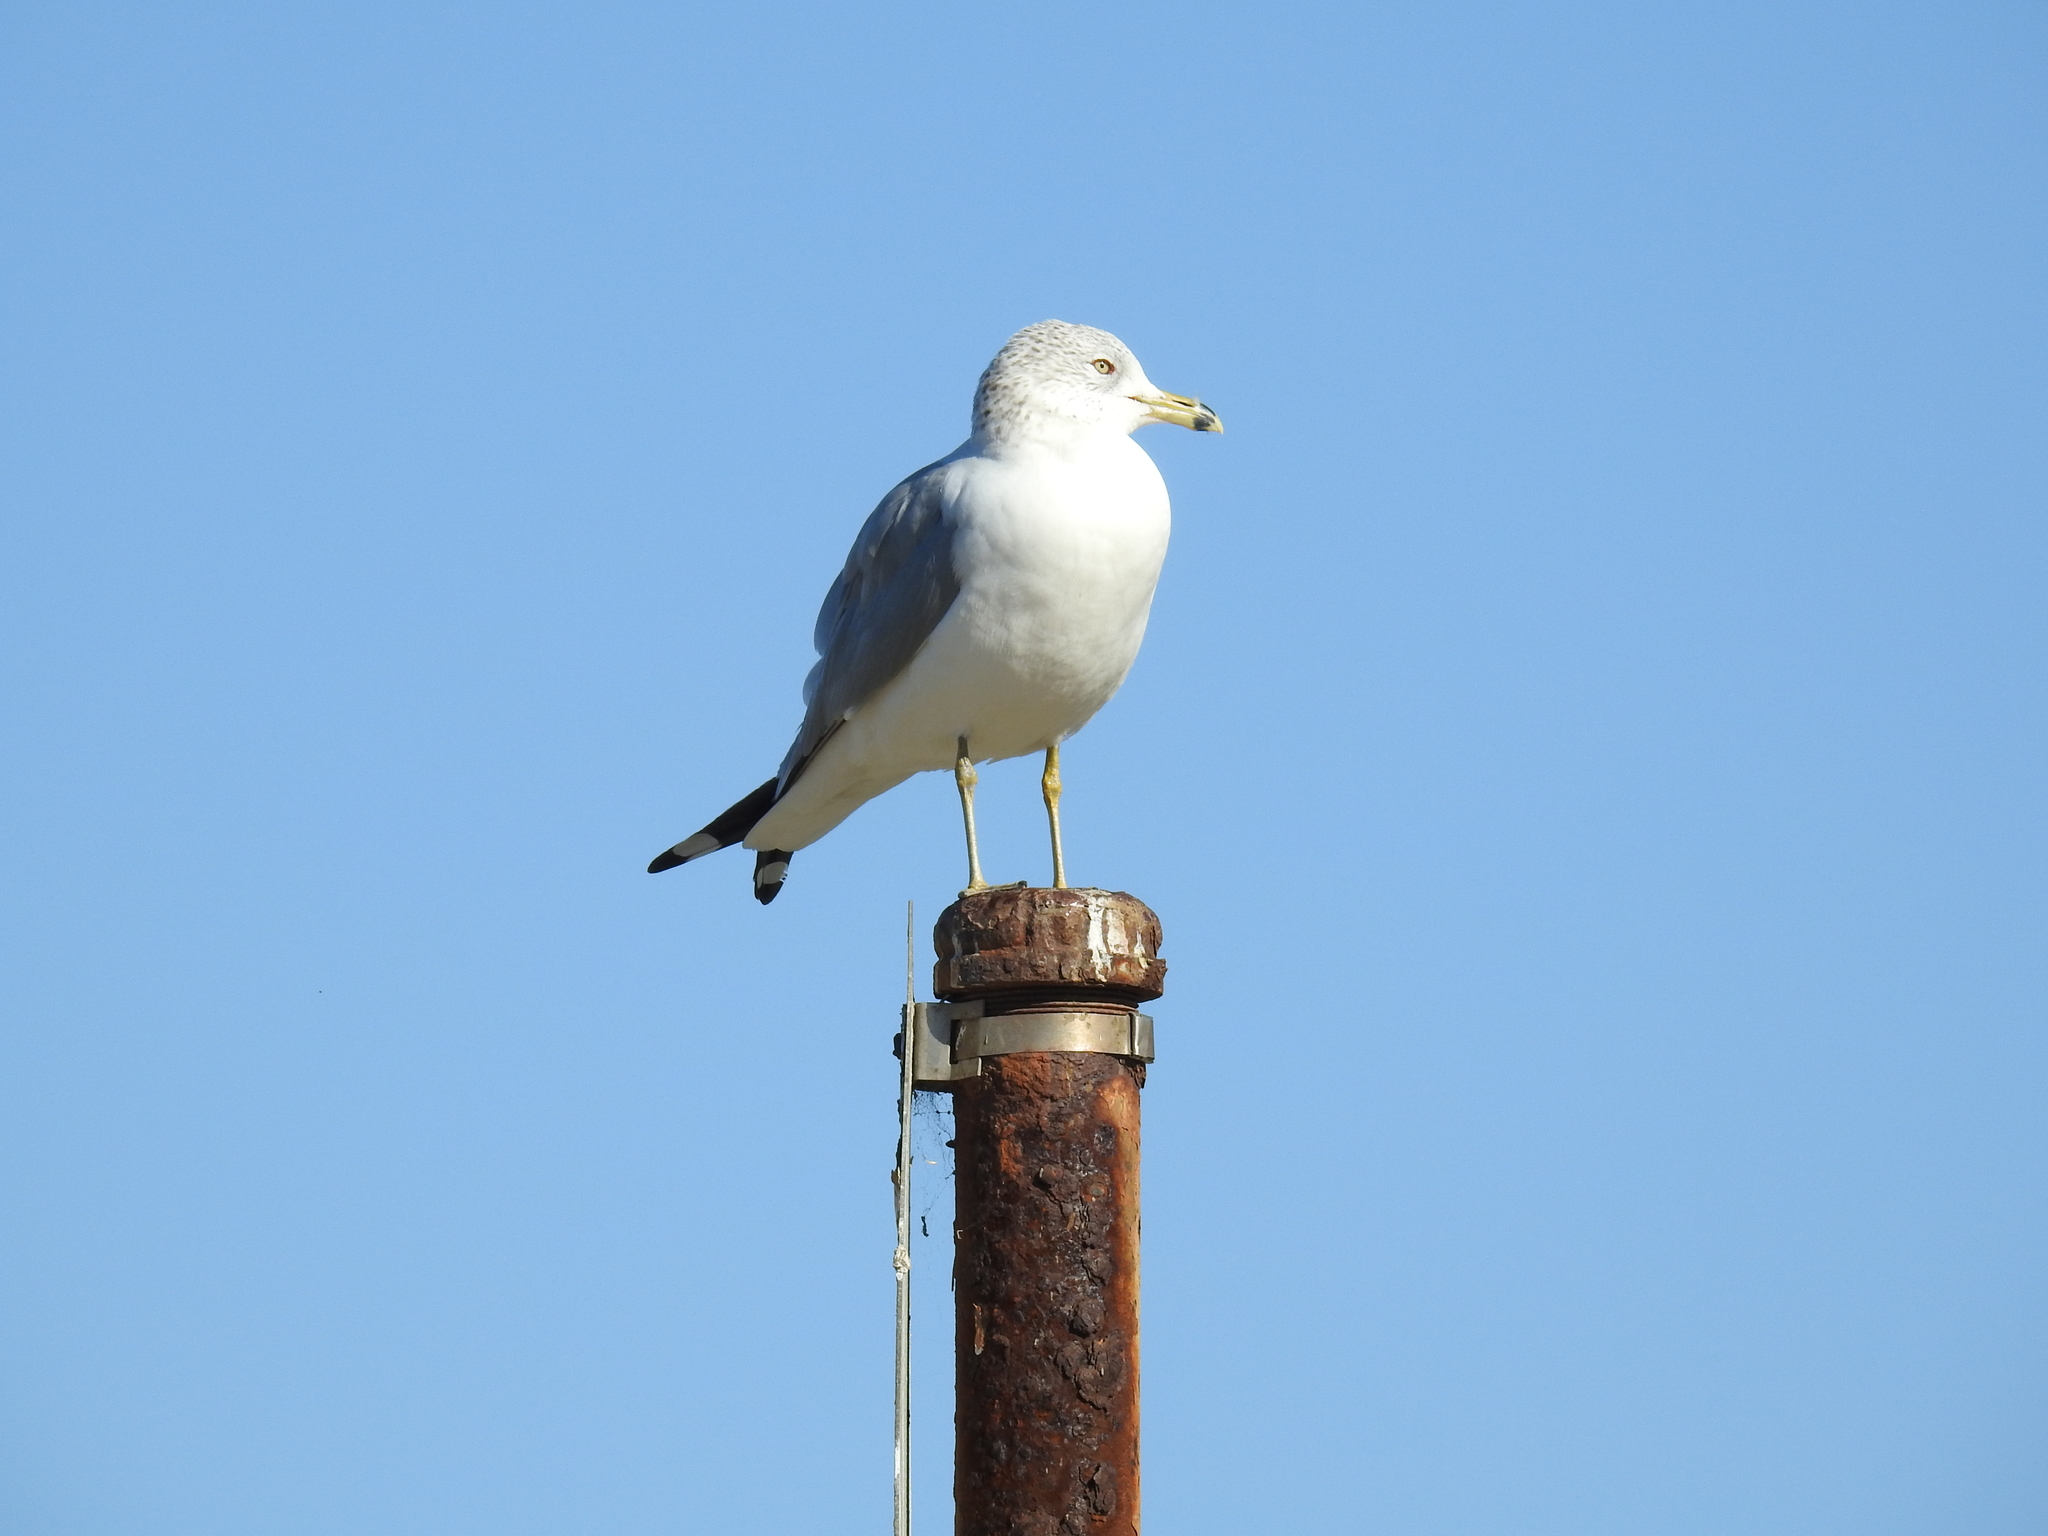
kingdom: Animalia
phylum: Chordata
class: Aves
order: Charadriiformes
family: Laridae
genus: Larus
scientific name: Larus delawarensis
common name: Ring-billed gull
